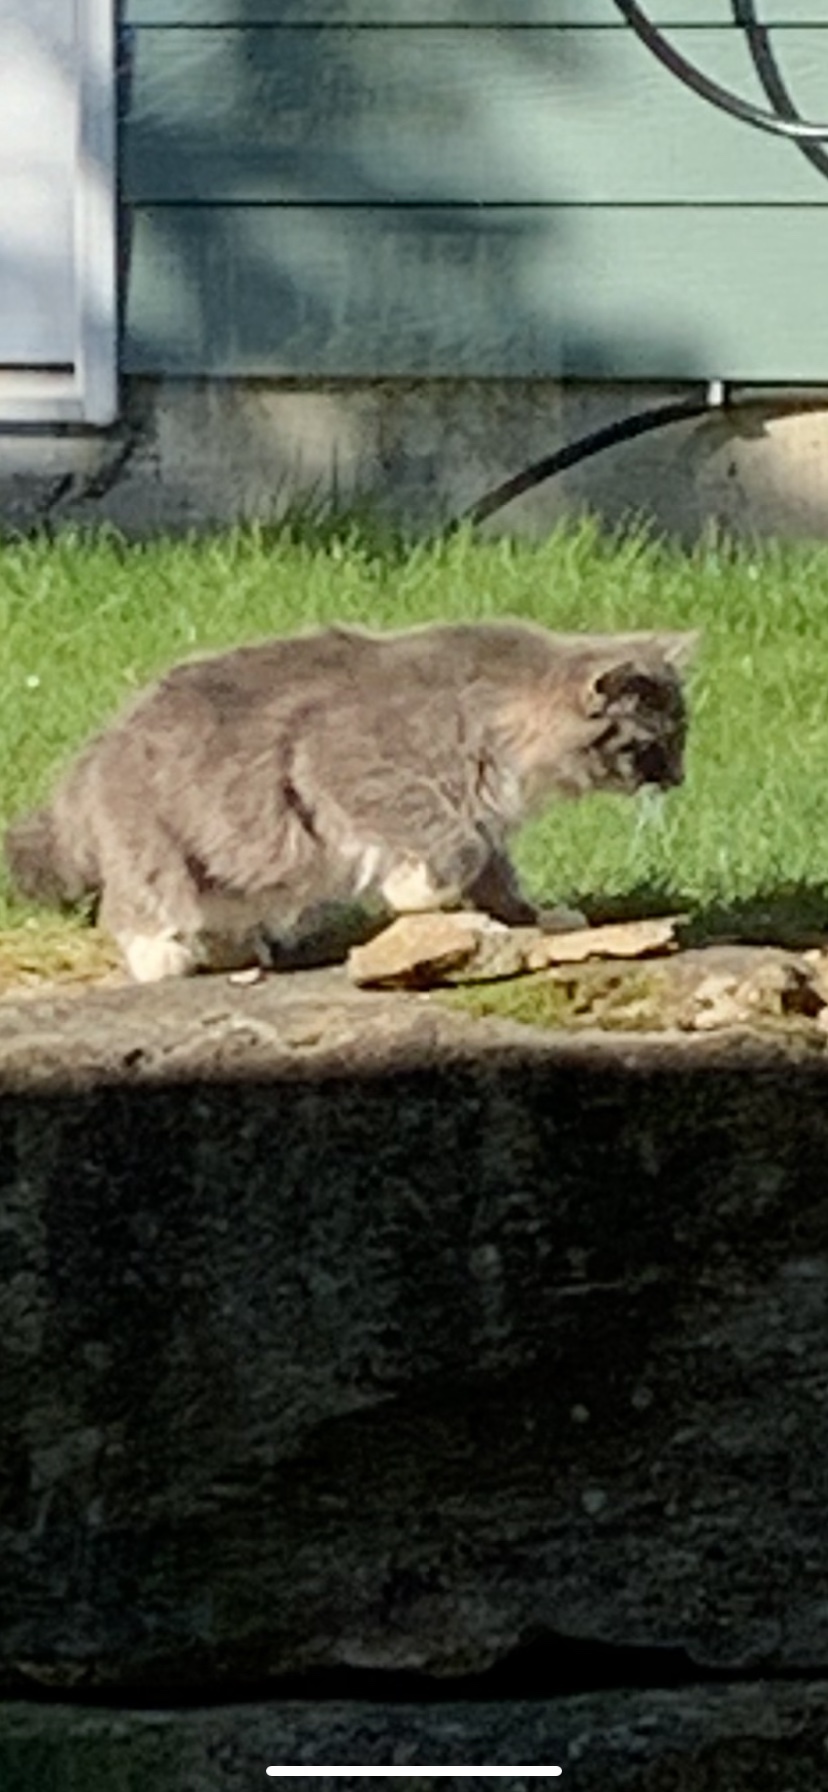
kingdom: Animalia
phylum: Chordata
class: Mammalia
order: Carnivora
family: Felidae
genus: Felis
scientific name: Felis catus
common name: Domestic cat
